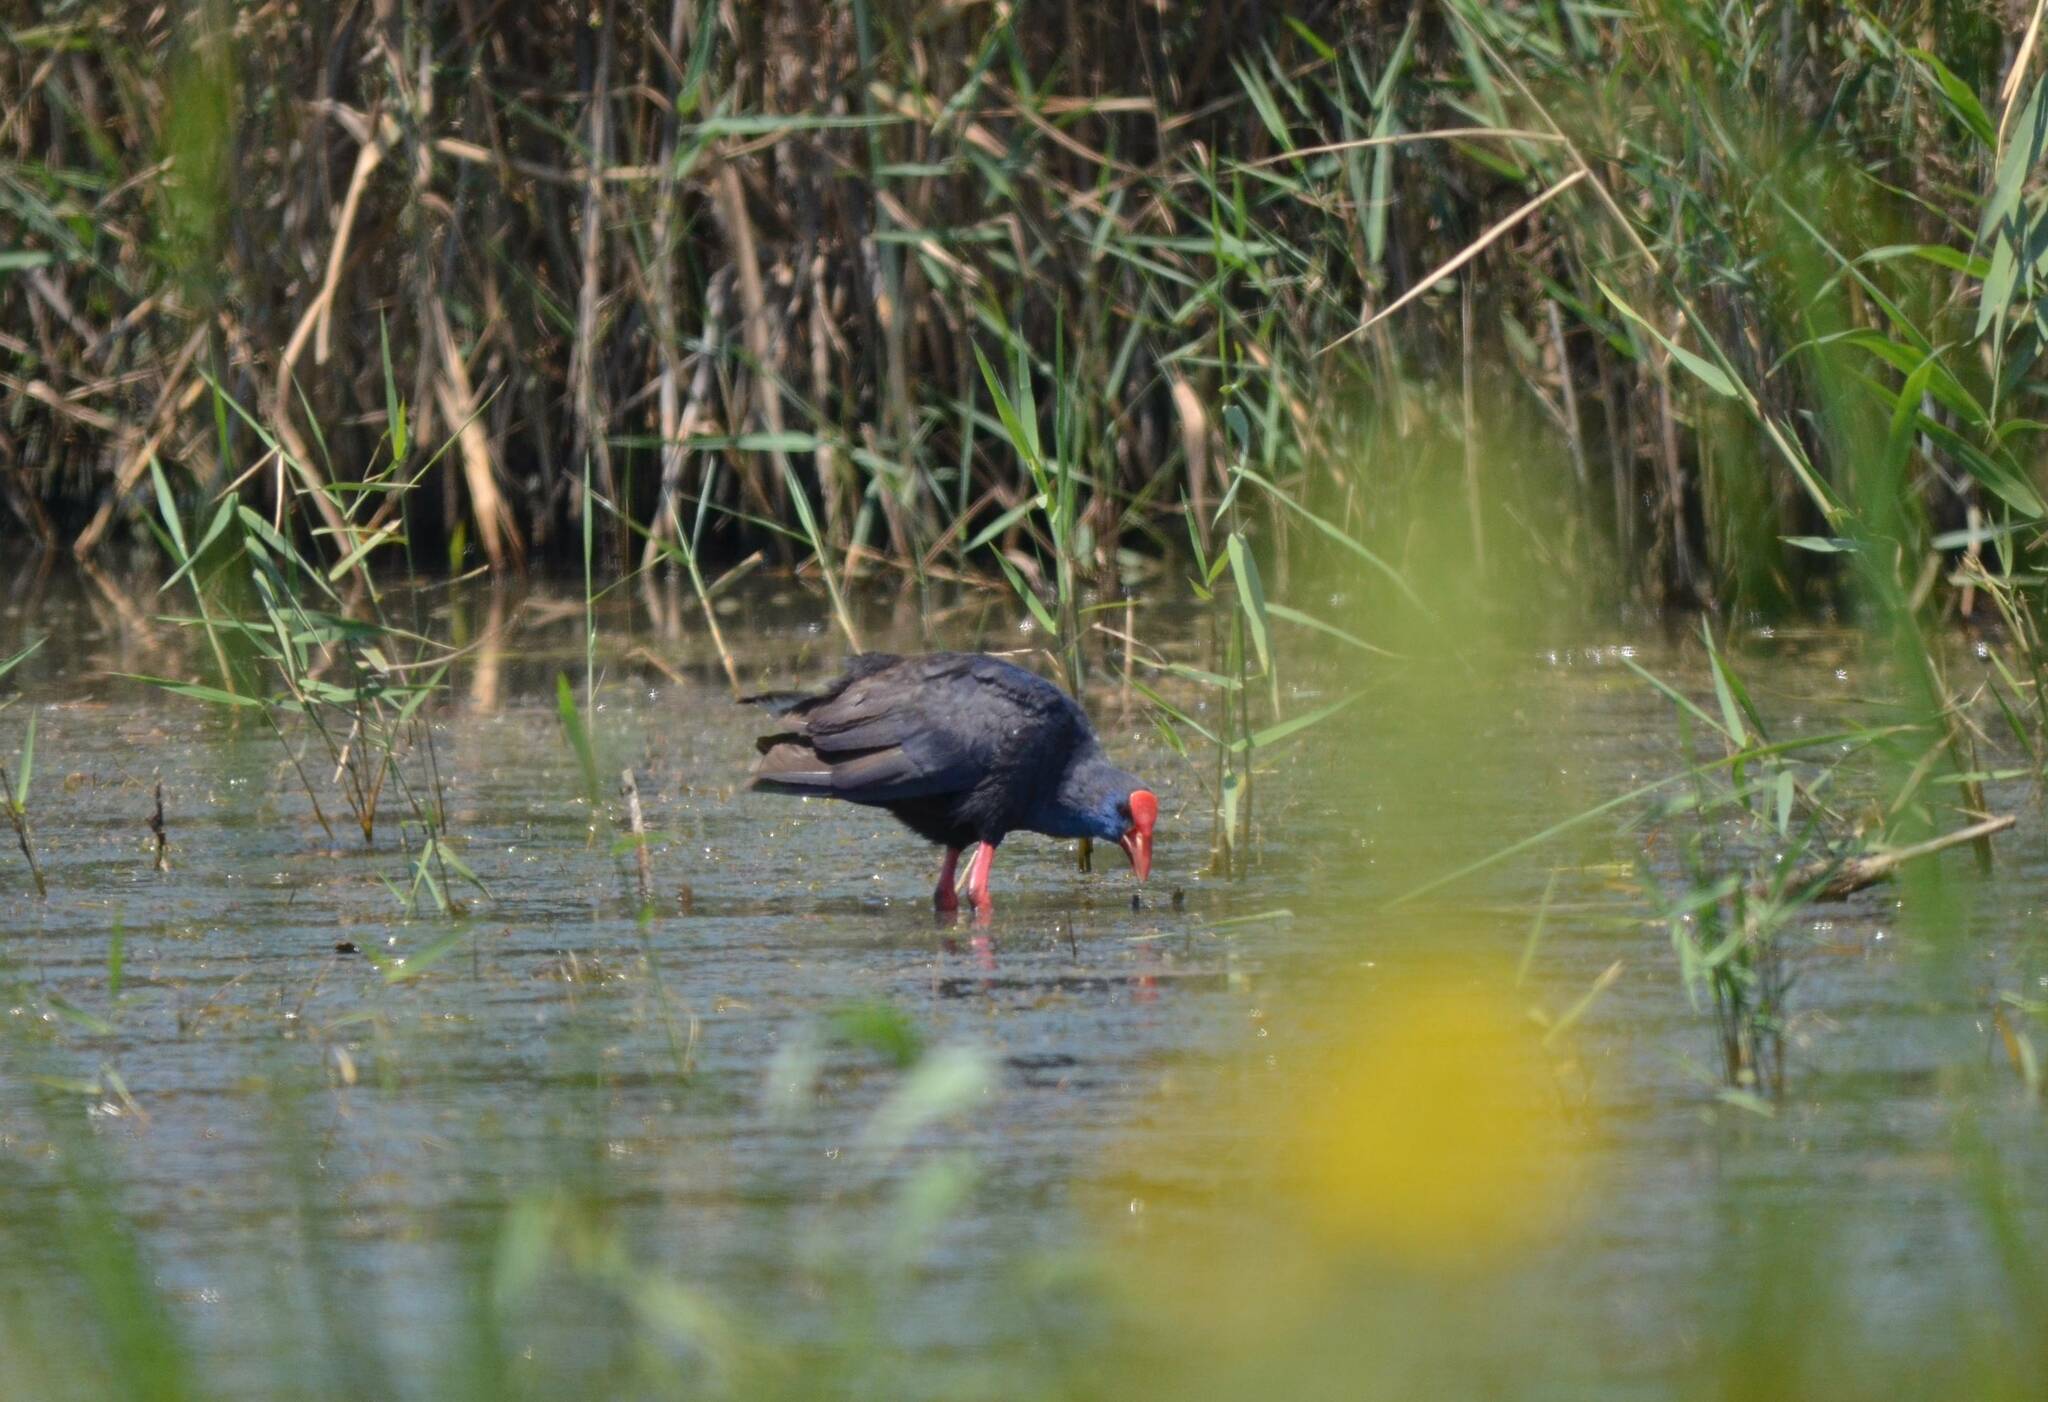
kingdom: Animalia
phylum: Chordata
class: Aves
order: Gruiformes
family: Rallidae
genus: Porphyrio
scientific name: Porphyrio porphyrio
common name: Purple swamphen
